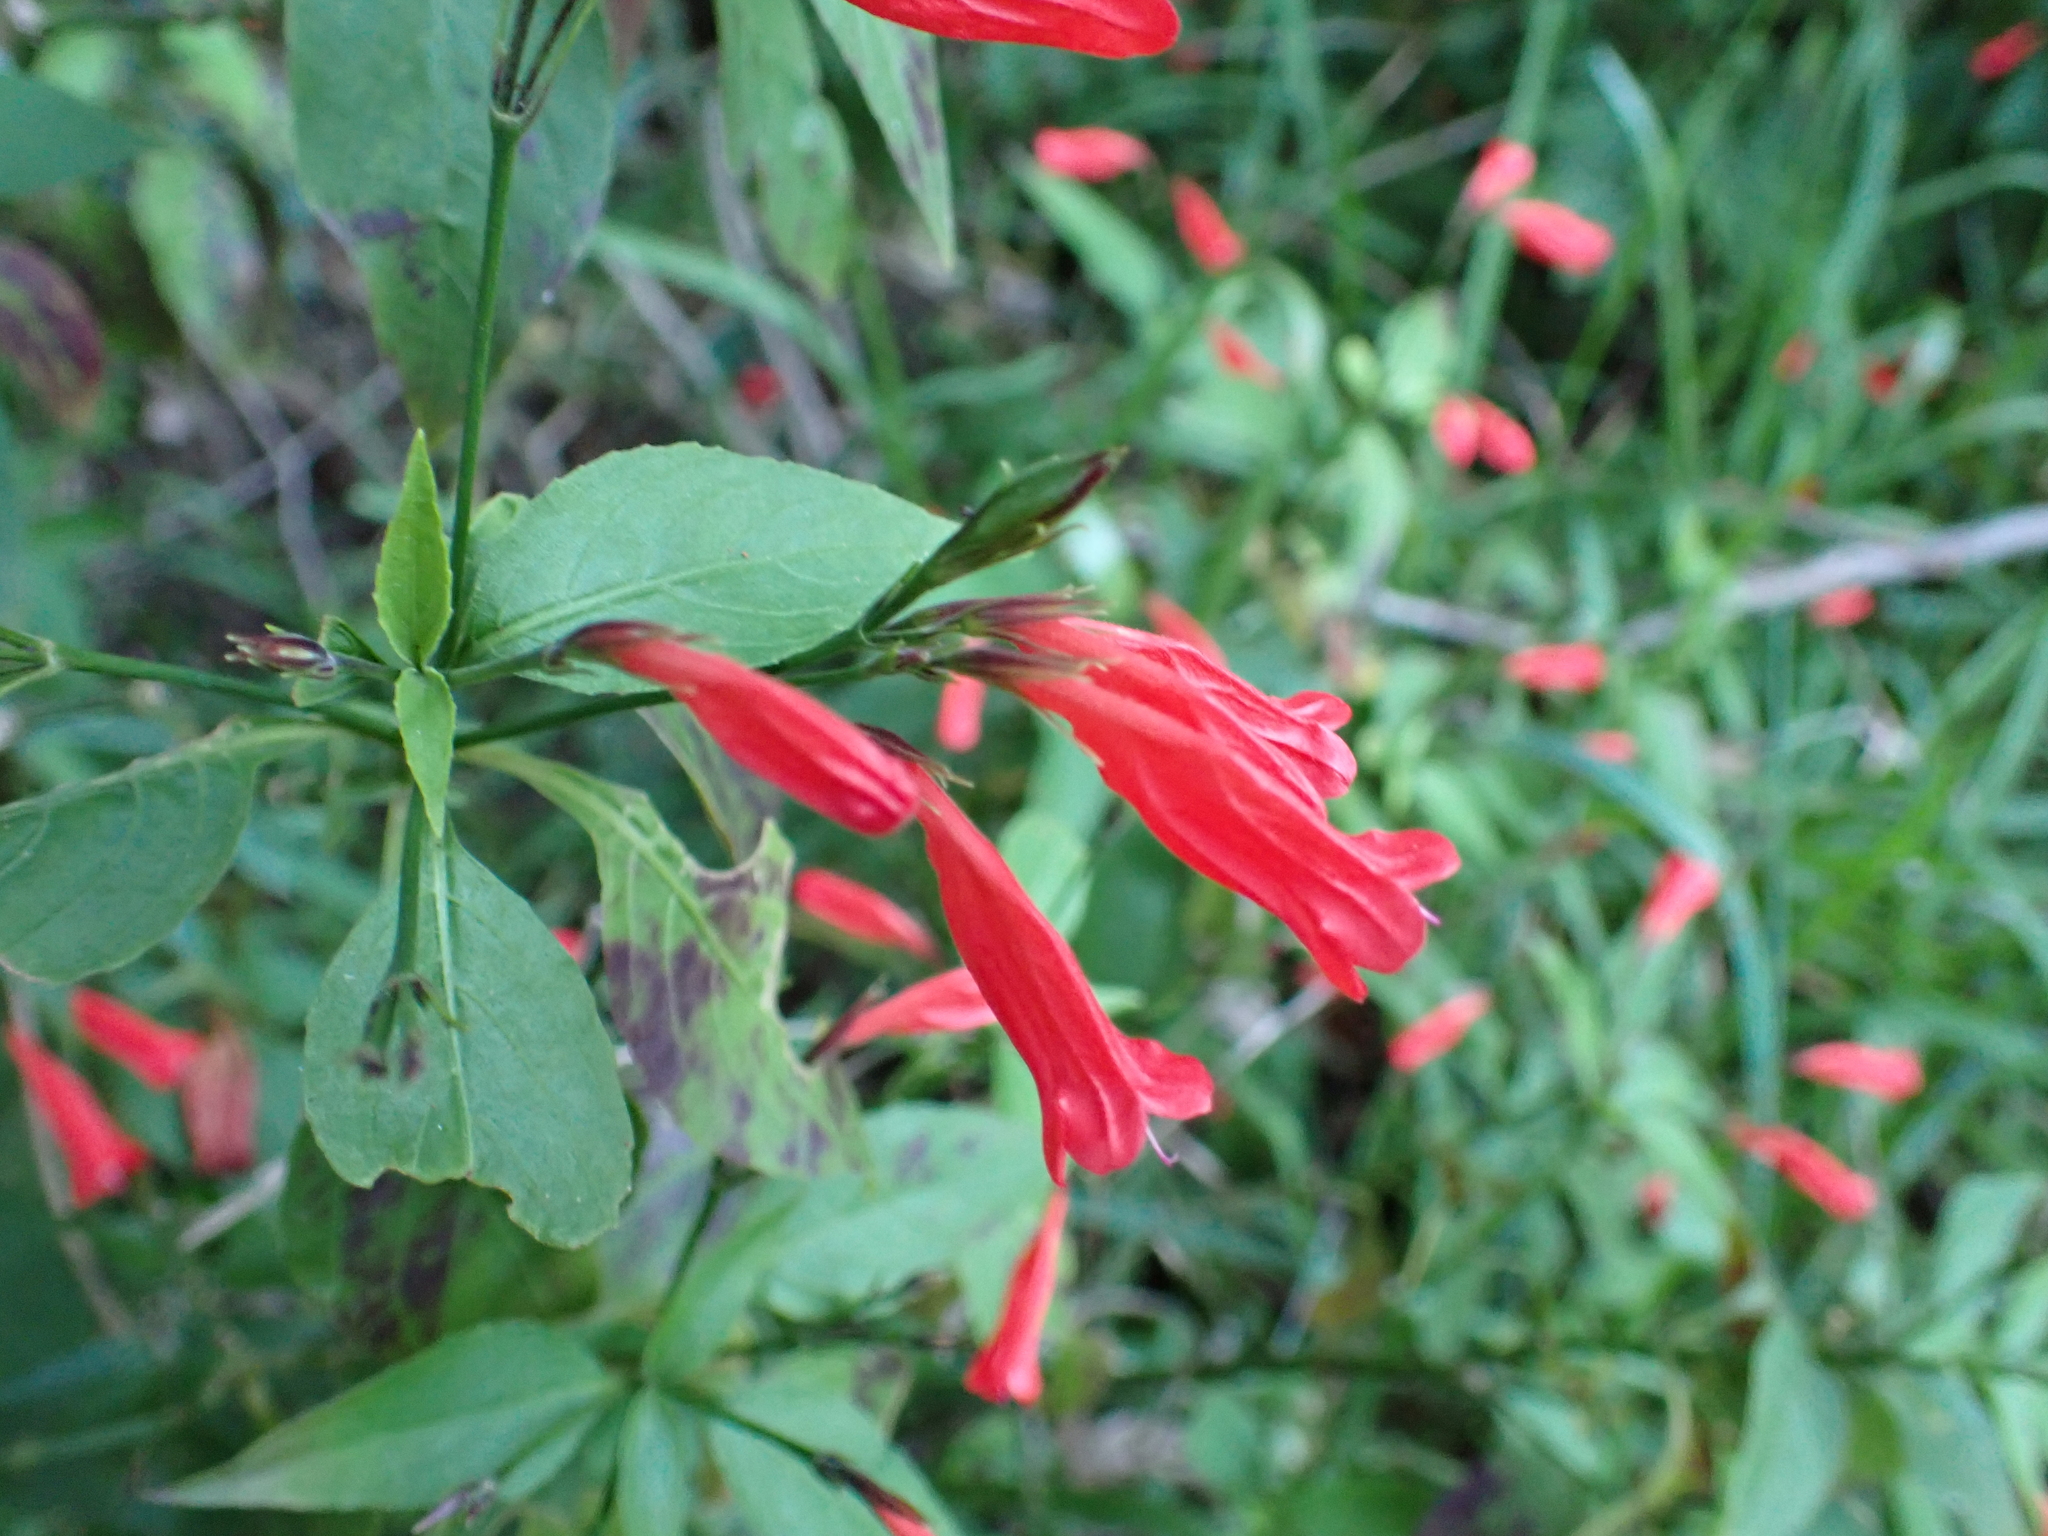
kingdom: Plantae
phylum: Tracheophyta
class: Magnoliopsida
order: Lamiales
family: Acanthaceae
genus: Ruellia
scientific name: Ruellia brevifolia
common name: Tropical wild petunia
